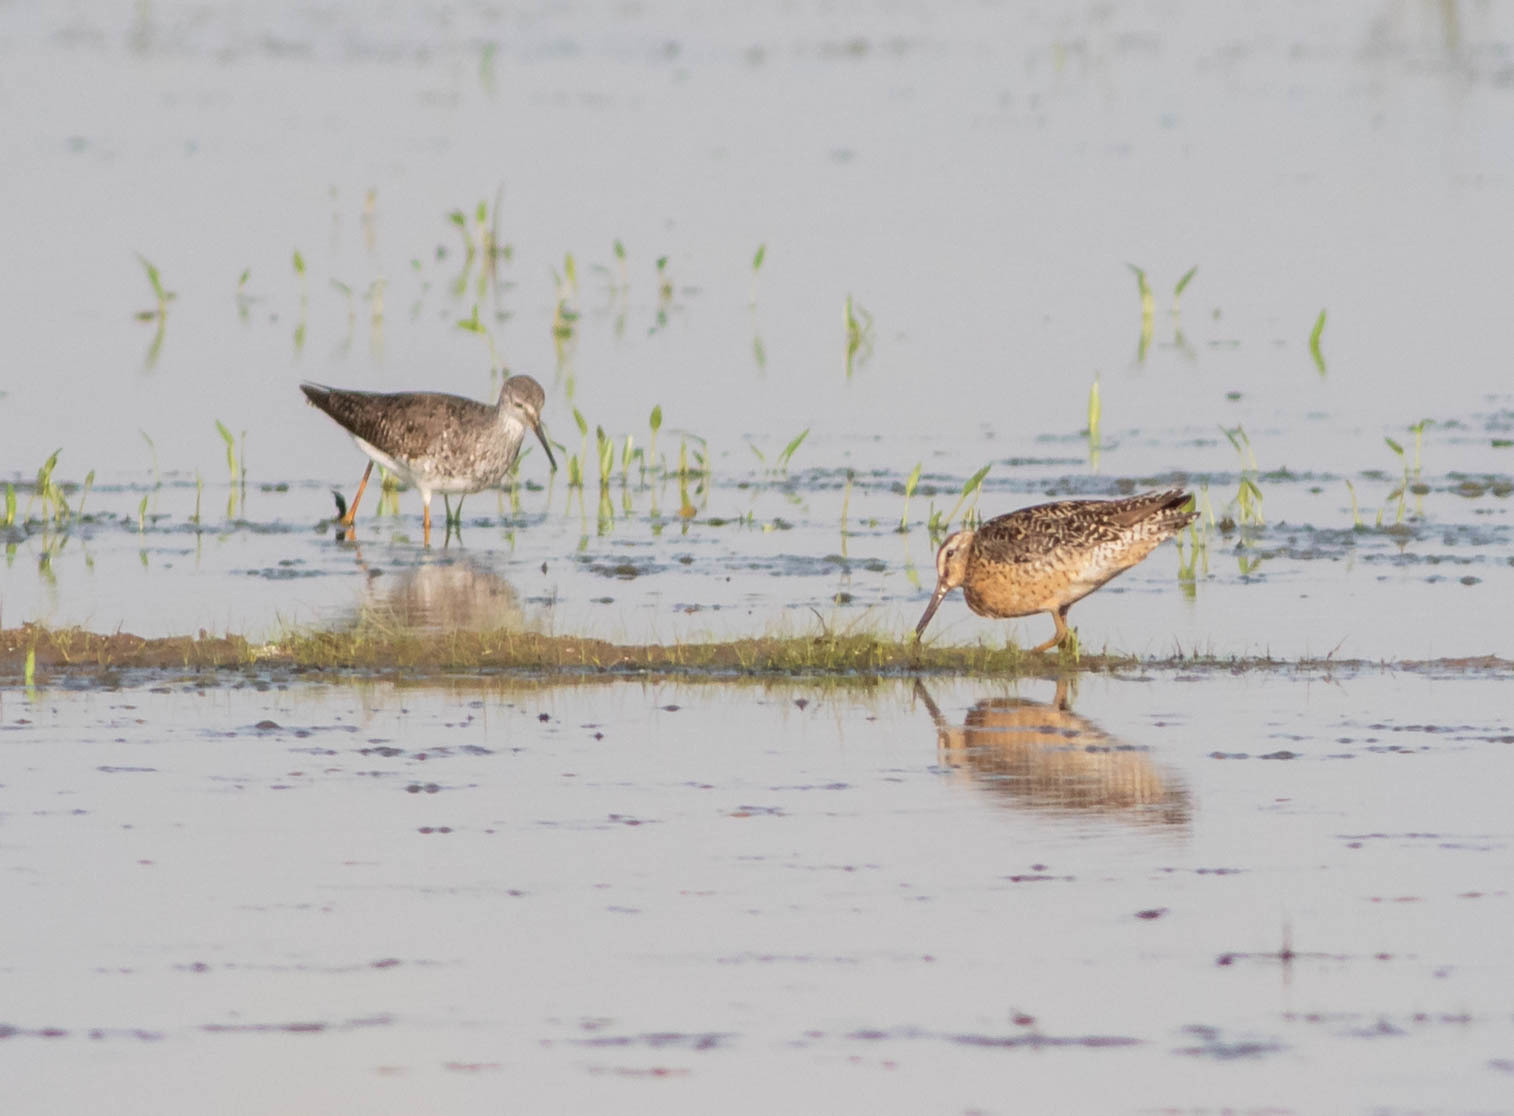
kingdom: Animalia
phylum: Chordata
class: Aves
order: Charadriiformes
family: Scolopacidae
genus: Limnodromus
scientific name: Limnodromus griseus
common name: Short-billed dowitcher
